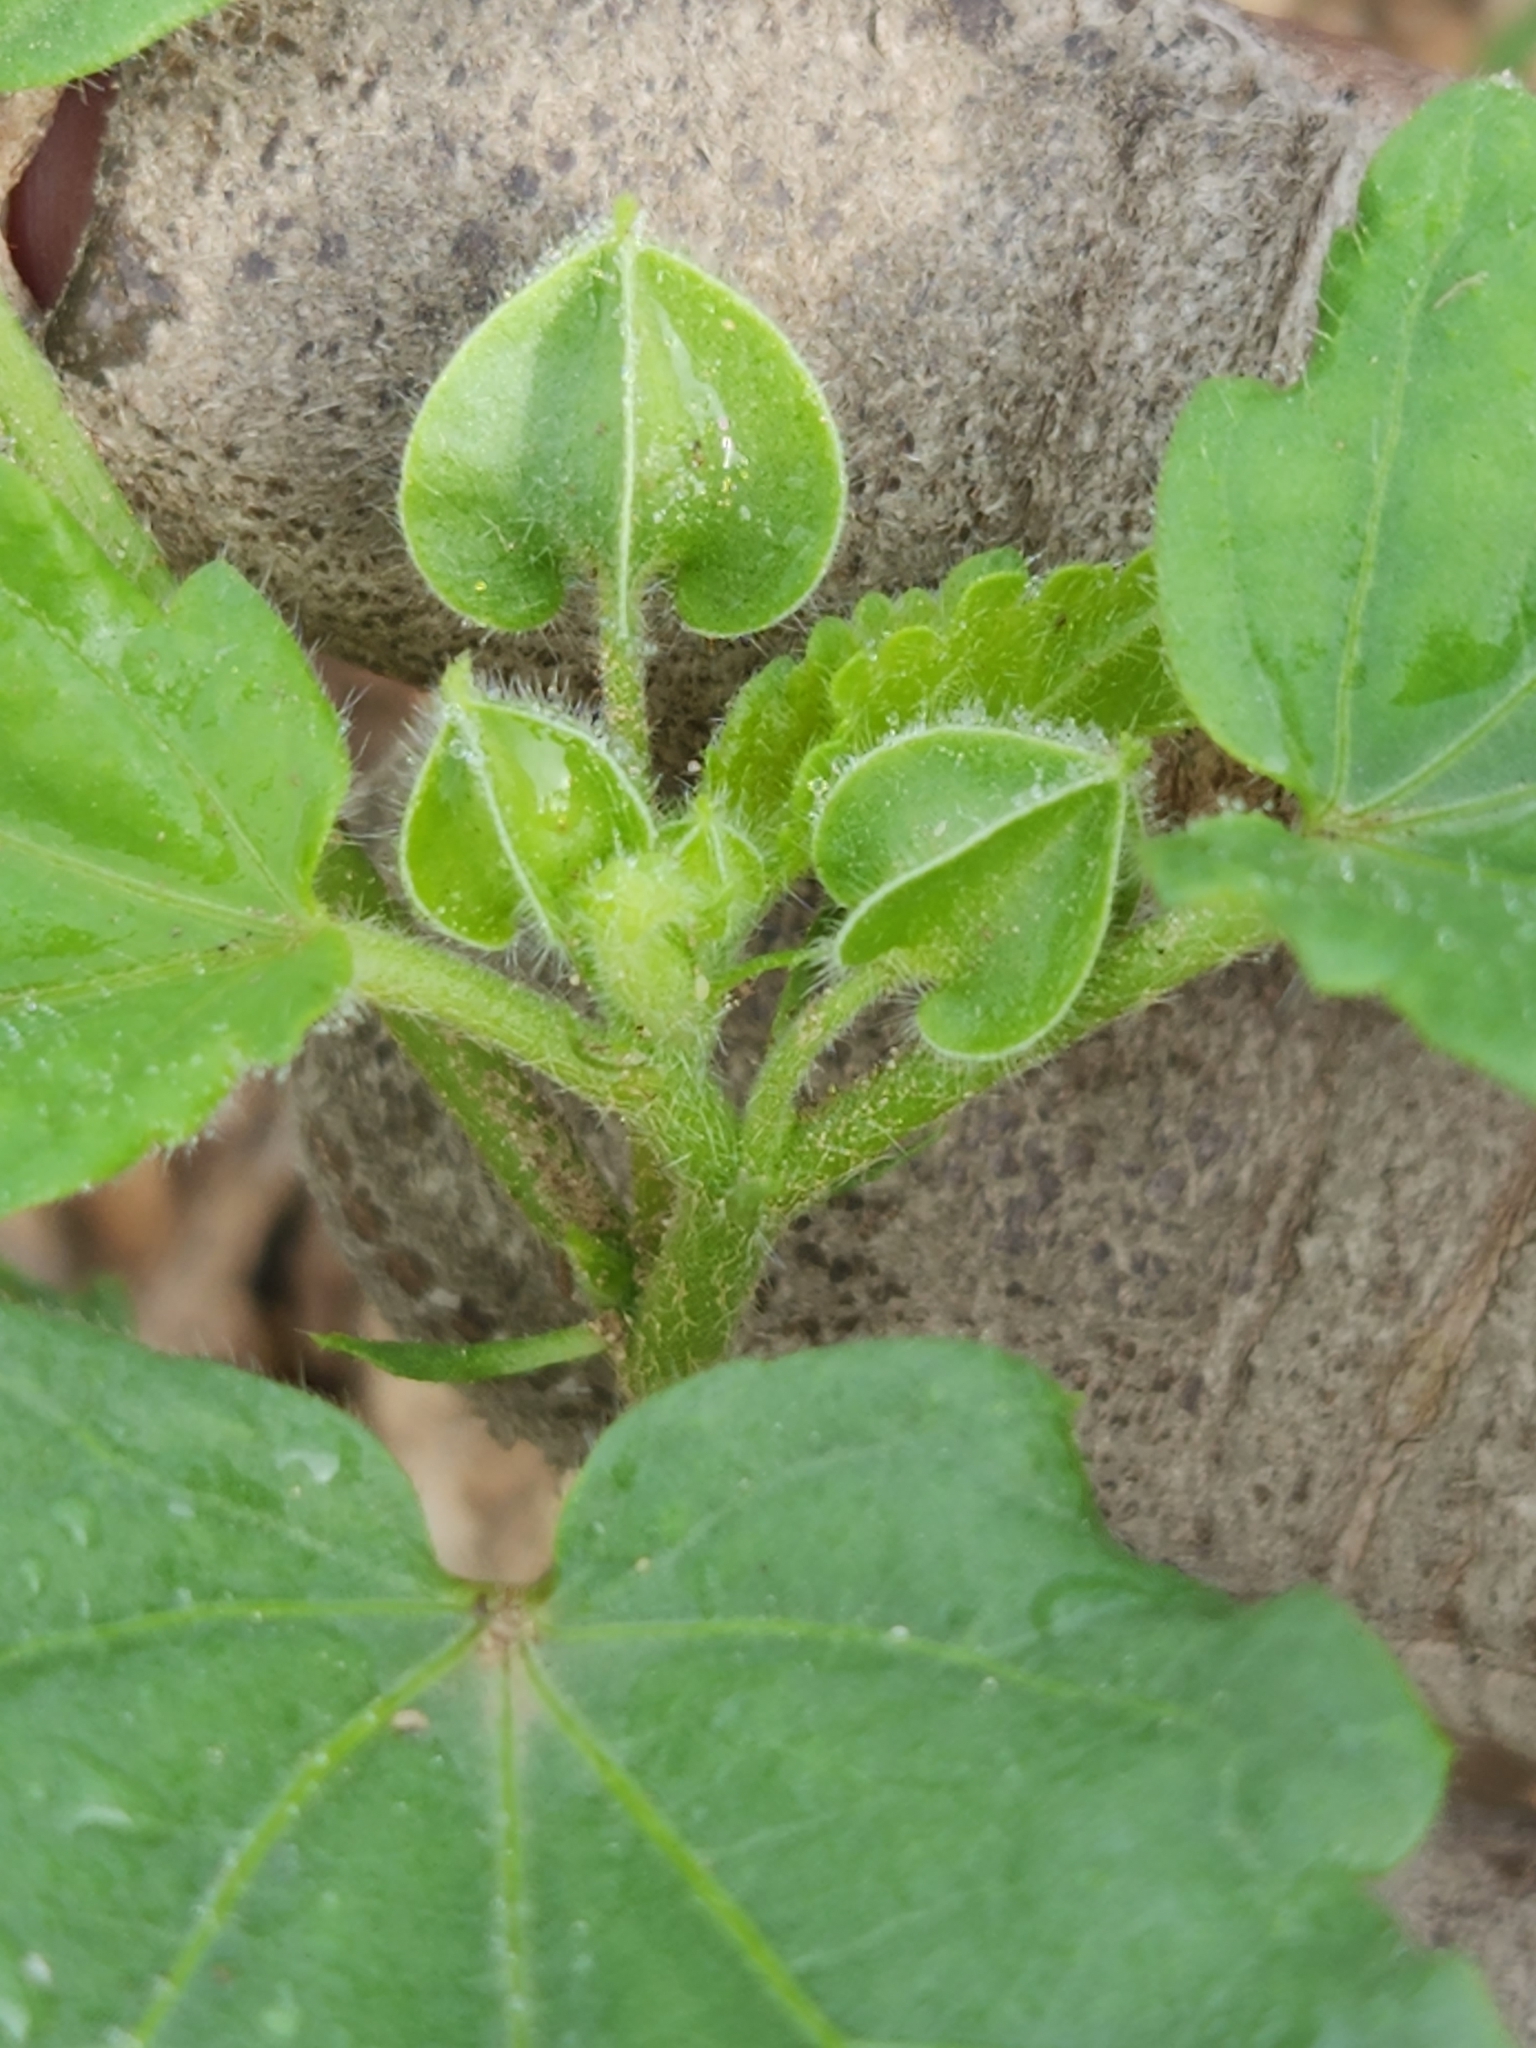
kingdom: Plantae
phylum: Tracheophyta
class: Magnoliopsida
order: Malvales
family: Malvaceae
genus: Rhynchosida
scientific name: Rhynchosida physocalyx
